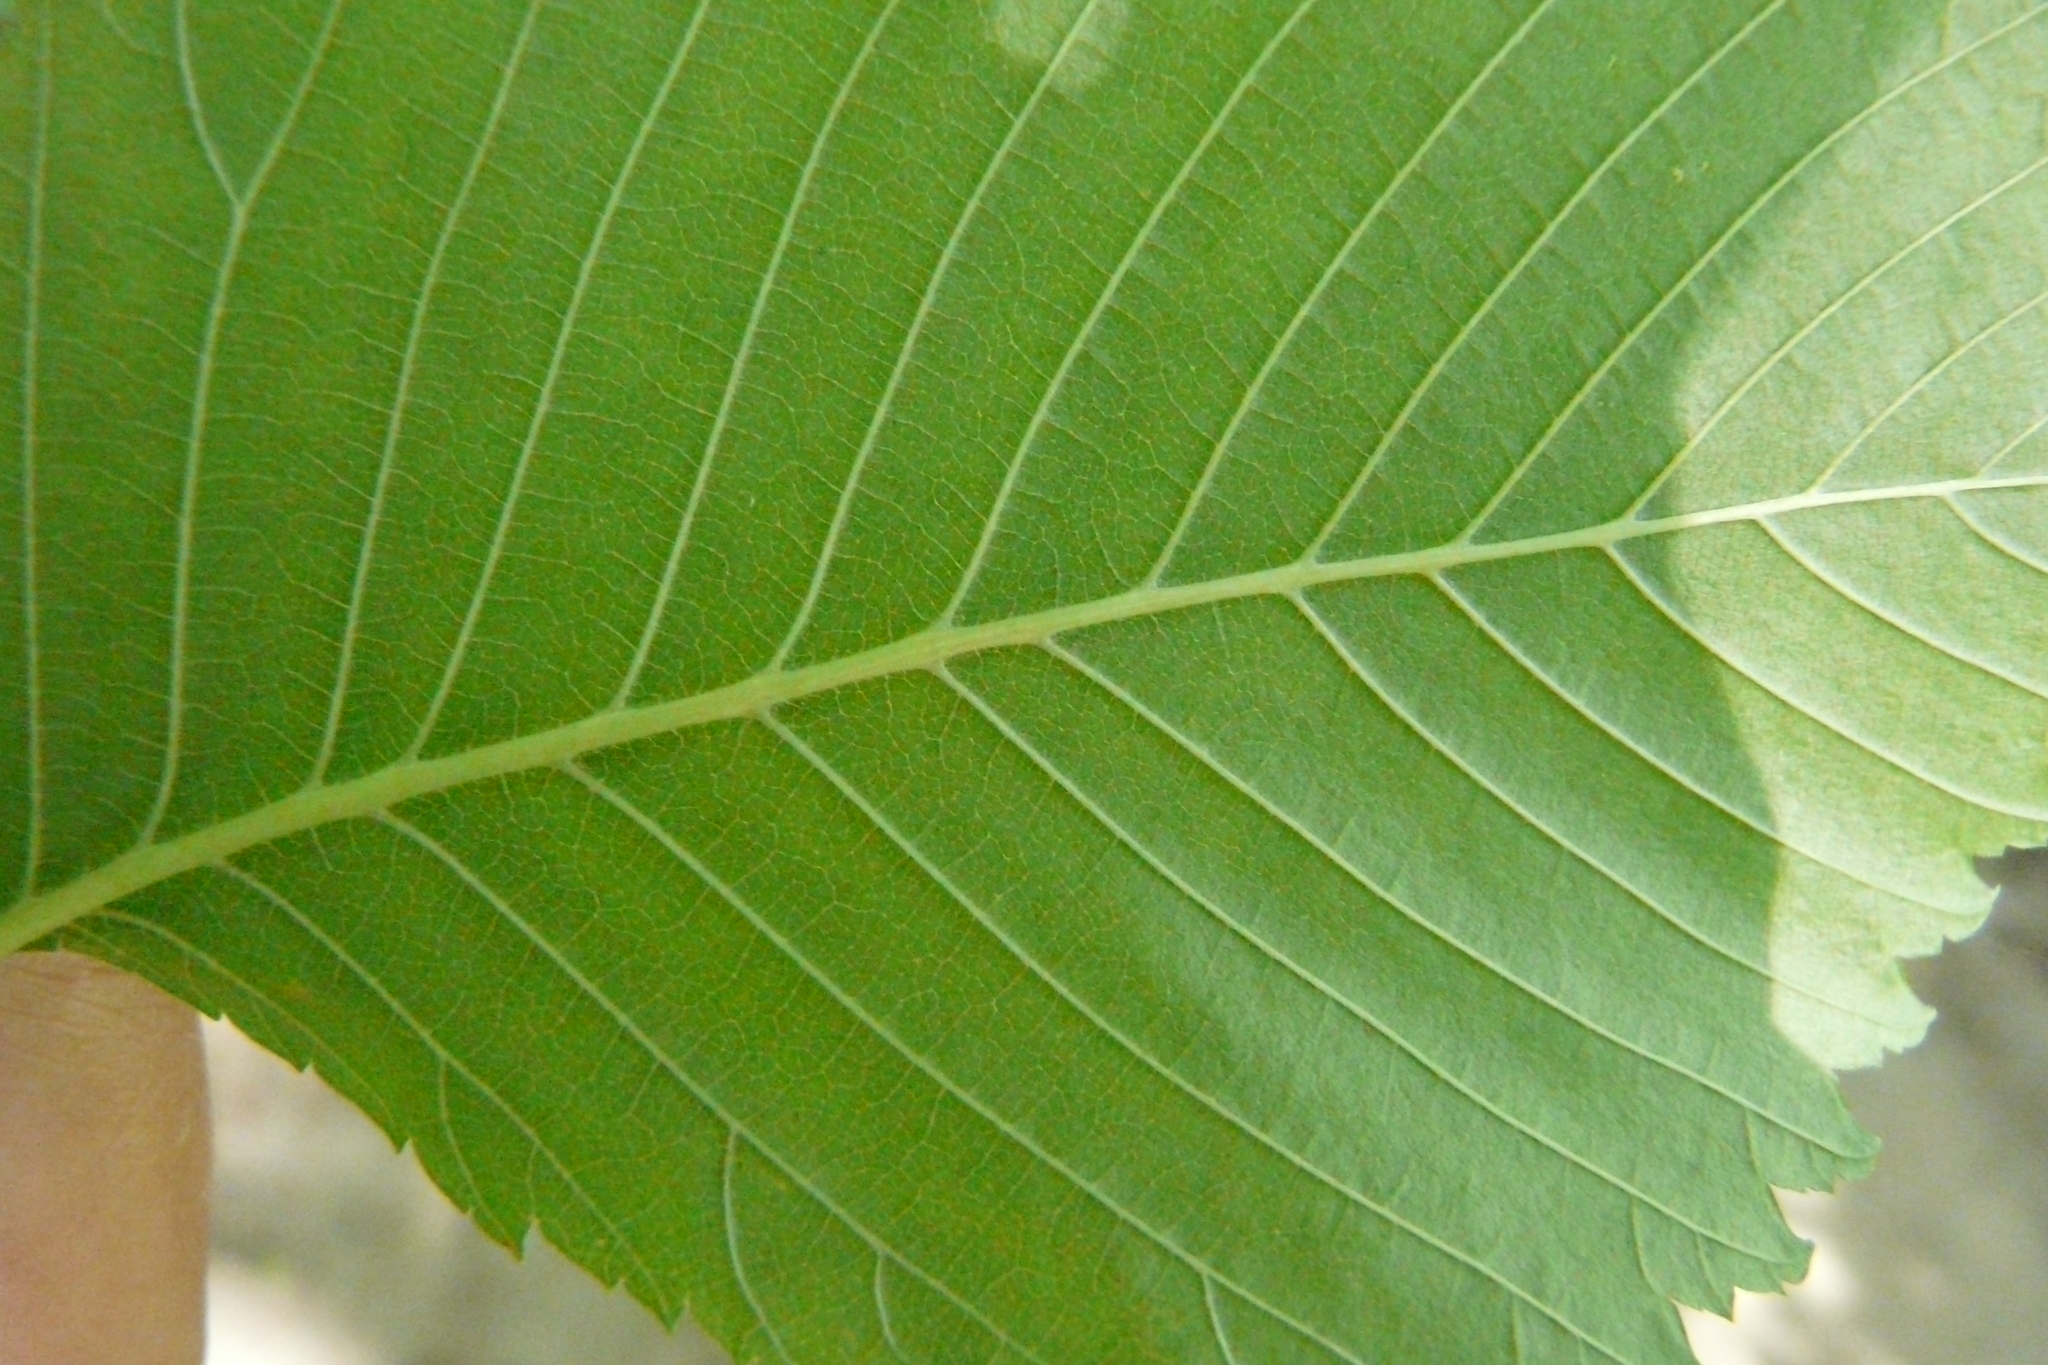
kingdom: Plantae
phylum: Tracheophyta
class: Magnoliopsida
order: Rosales
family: Ulmaceae
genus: Ulmus
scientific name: Ulmus laevis
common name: European white-elm
